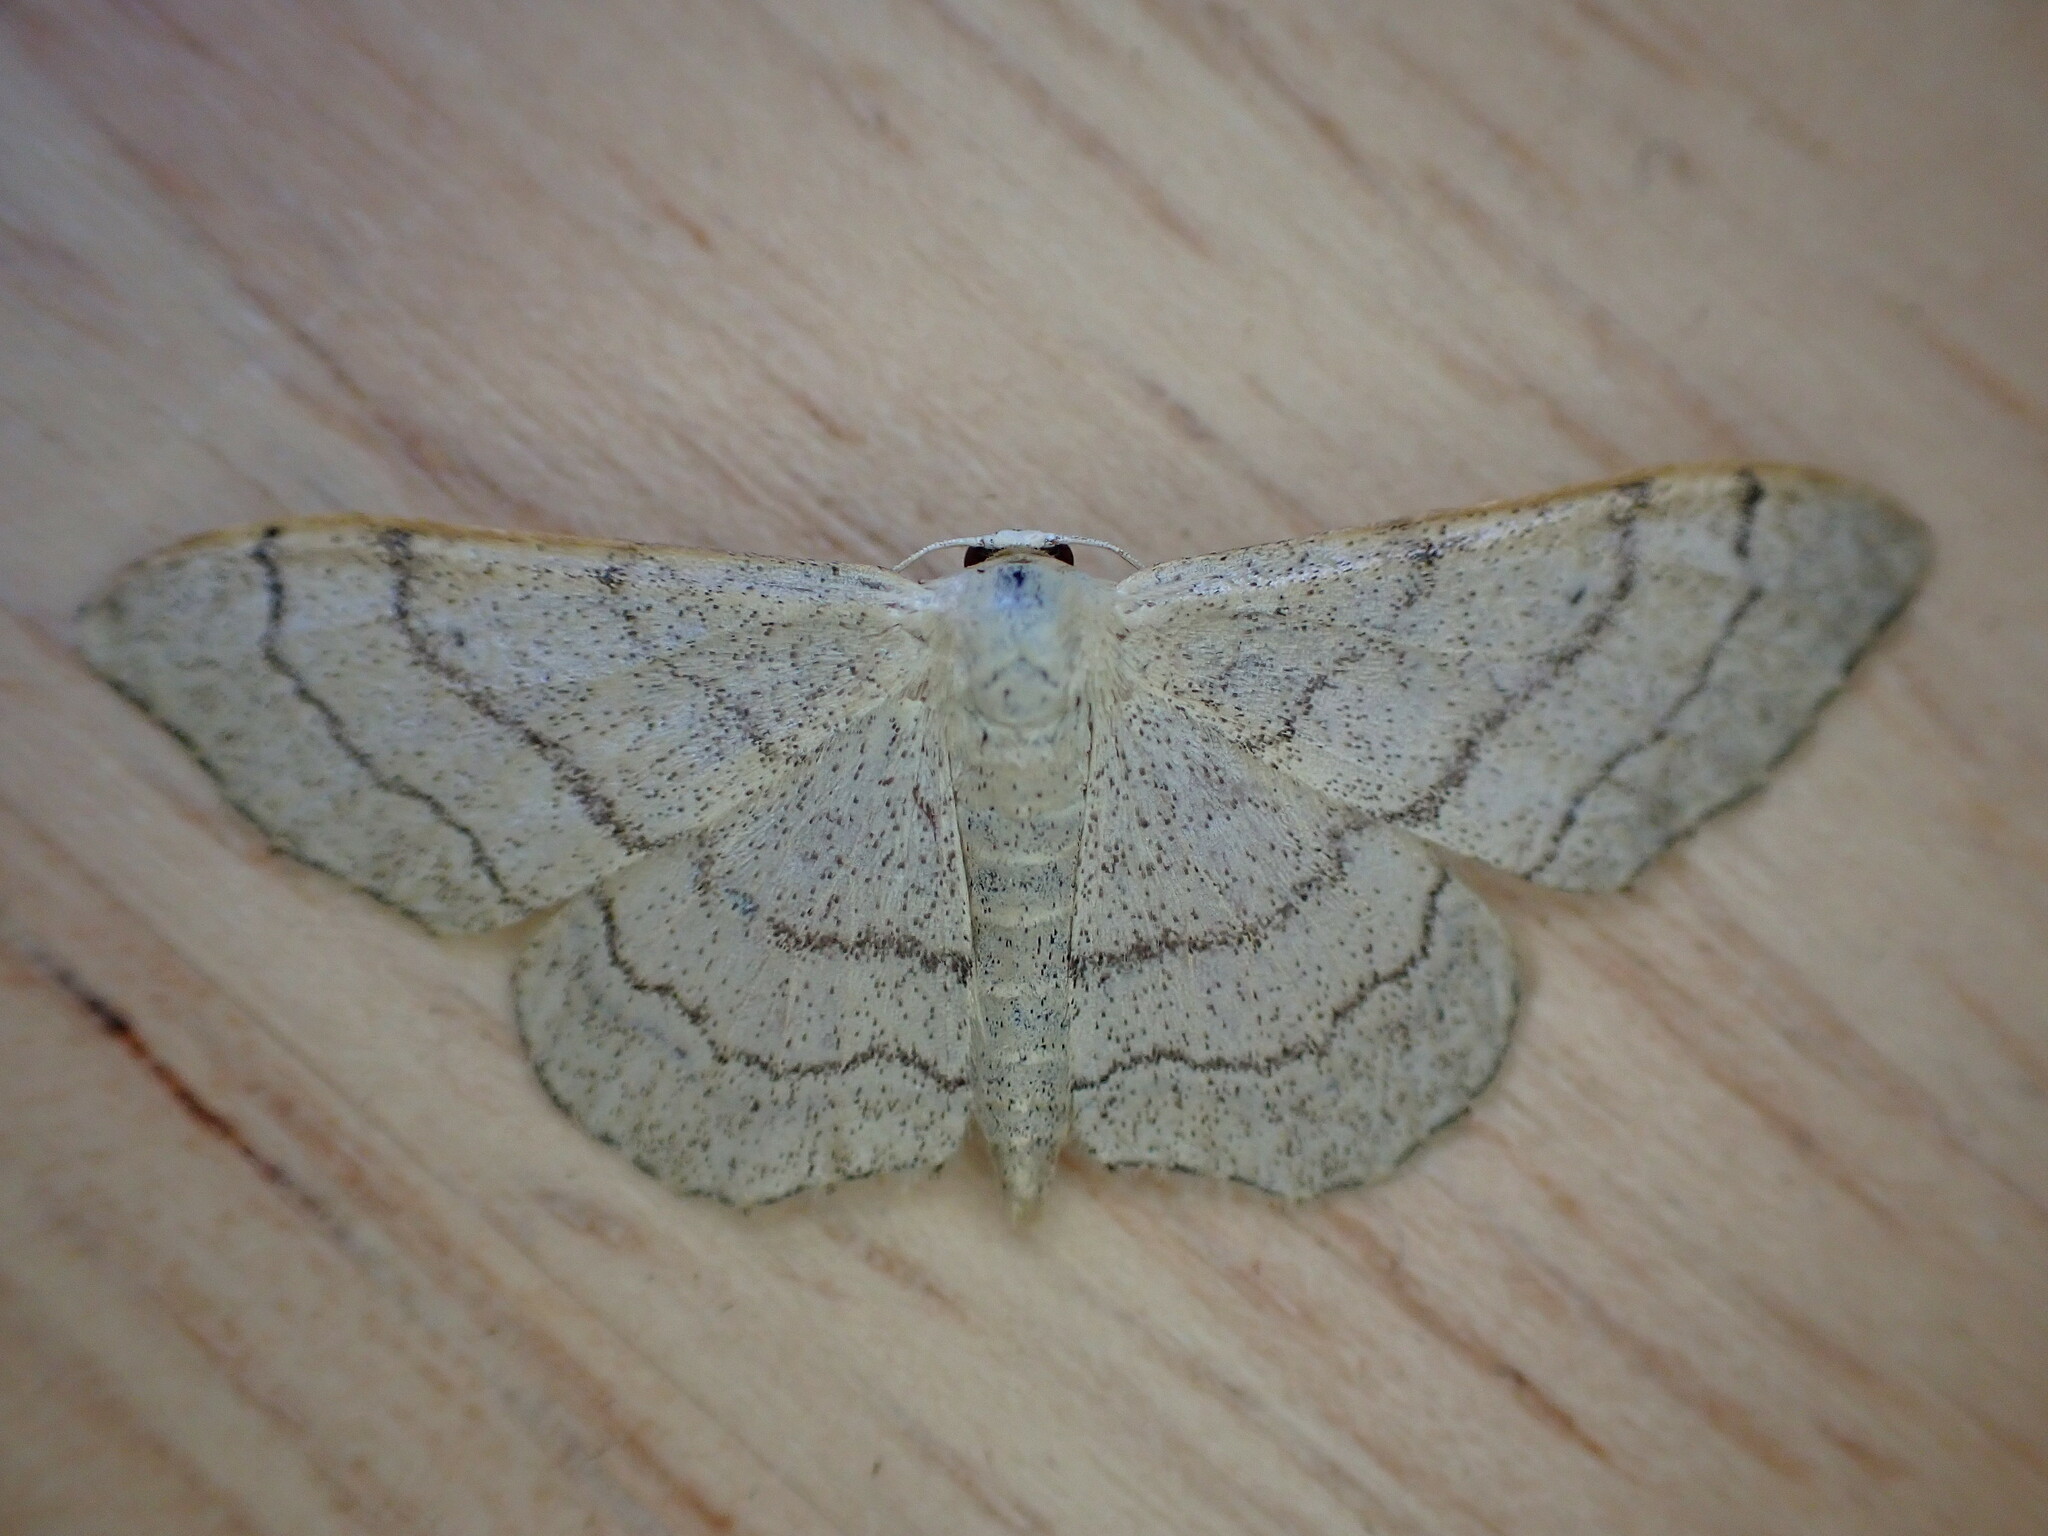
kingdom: Animalia
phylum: Arthropoda
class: Insecta
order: Lepidoptera
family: Geometridae
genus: Idaea
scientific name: Idaea aversata
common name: Riband wave
